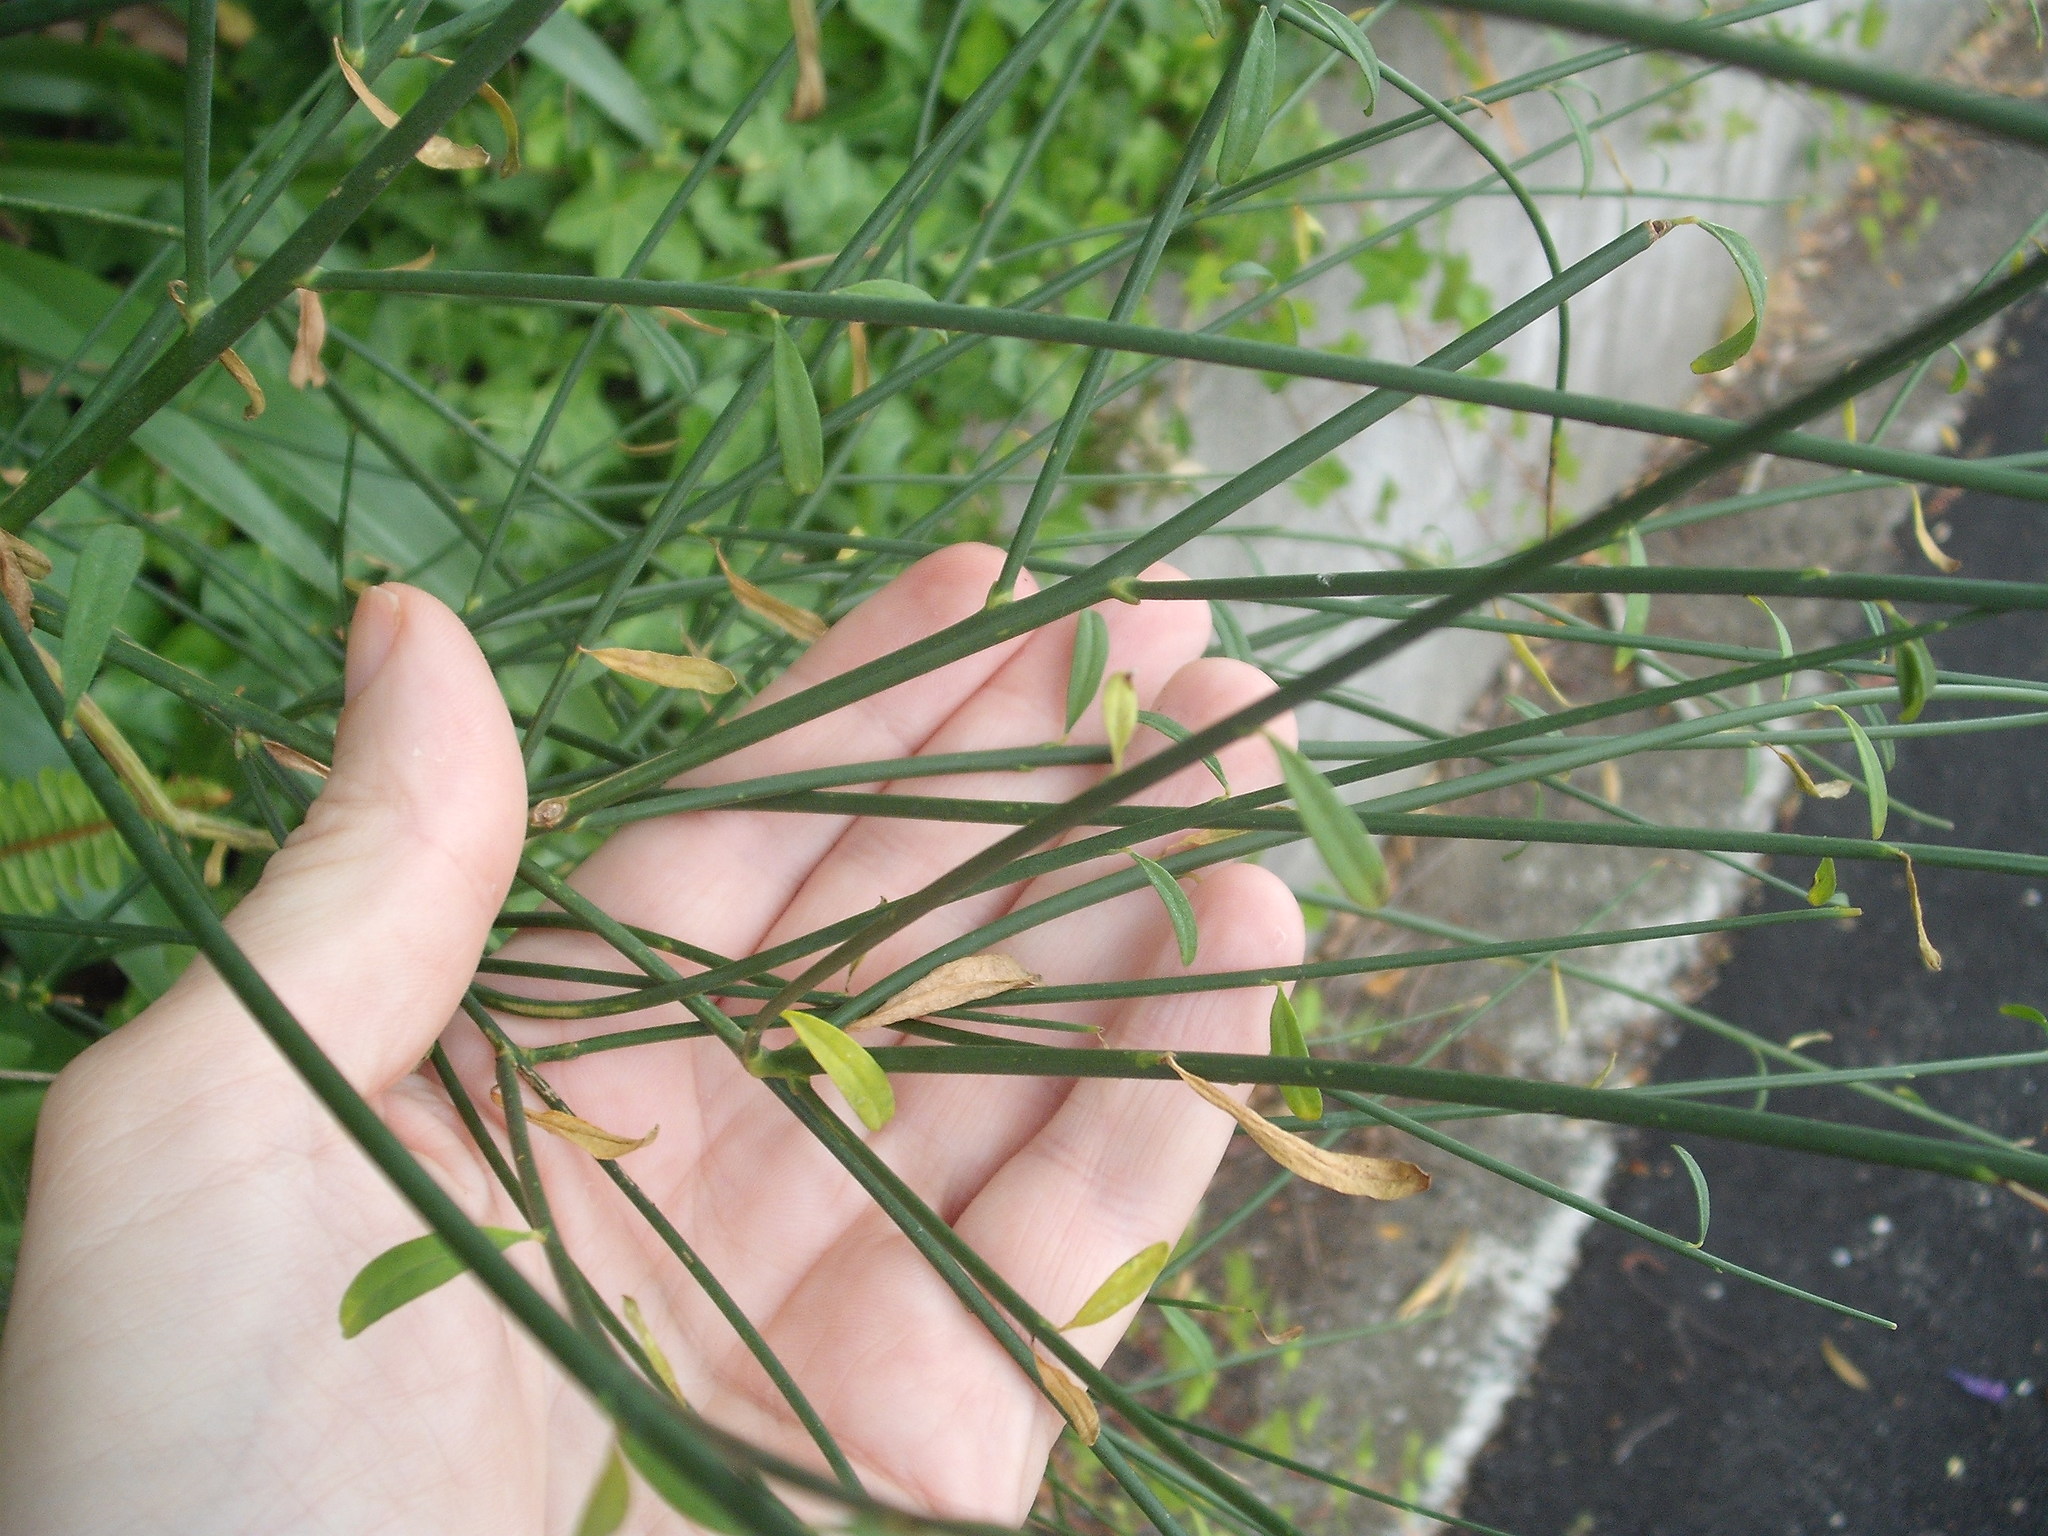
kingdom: Plantae
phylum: Tracheophyta
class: Magnoliopsida
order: Fabales
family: Fabaceae
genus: Spartium
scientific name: Spartium junceum
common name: Spanish broom
